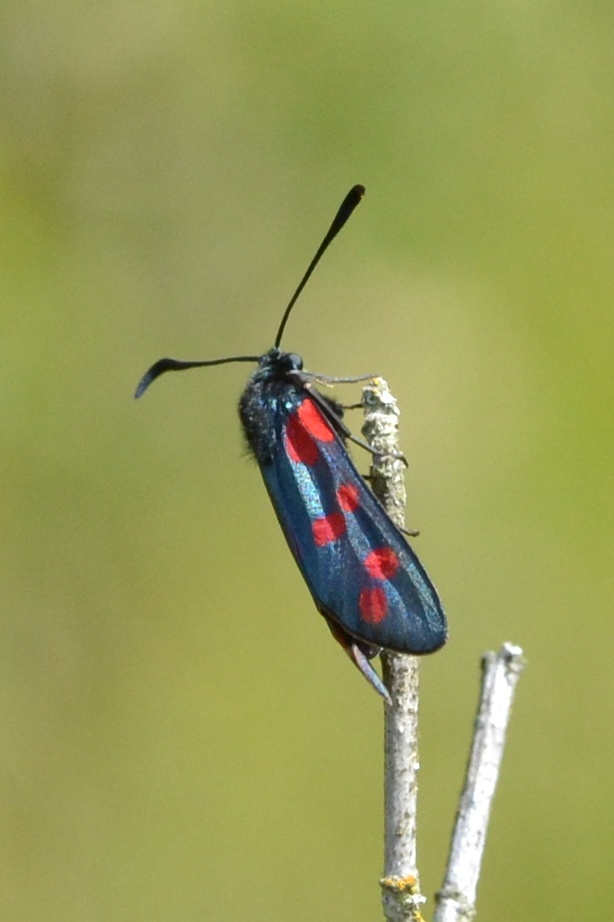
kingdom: Animalia
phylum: Arthropoda
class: Insecta
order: Lepidoptera
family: Zygaenidae
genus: Zygaena
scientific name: Zygaena filipendulae
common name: Six-spot burnet
